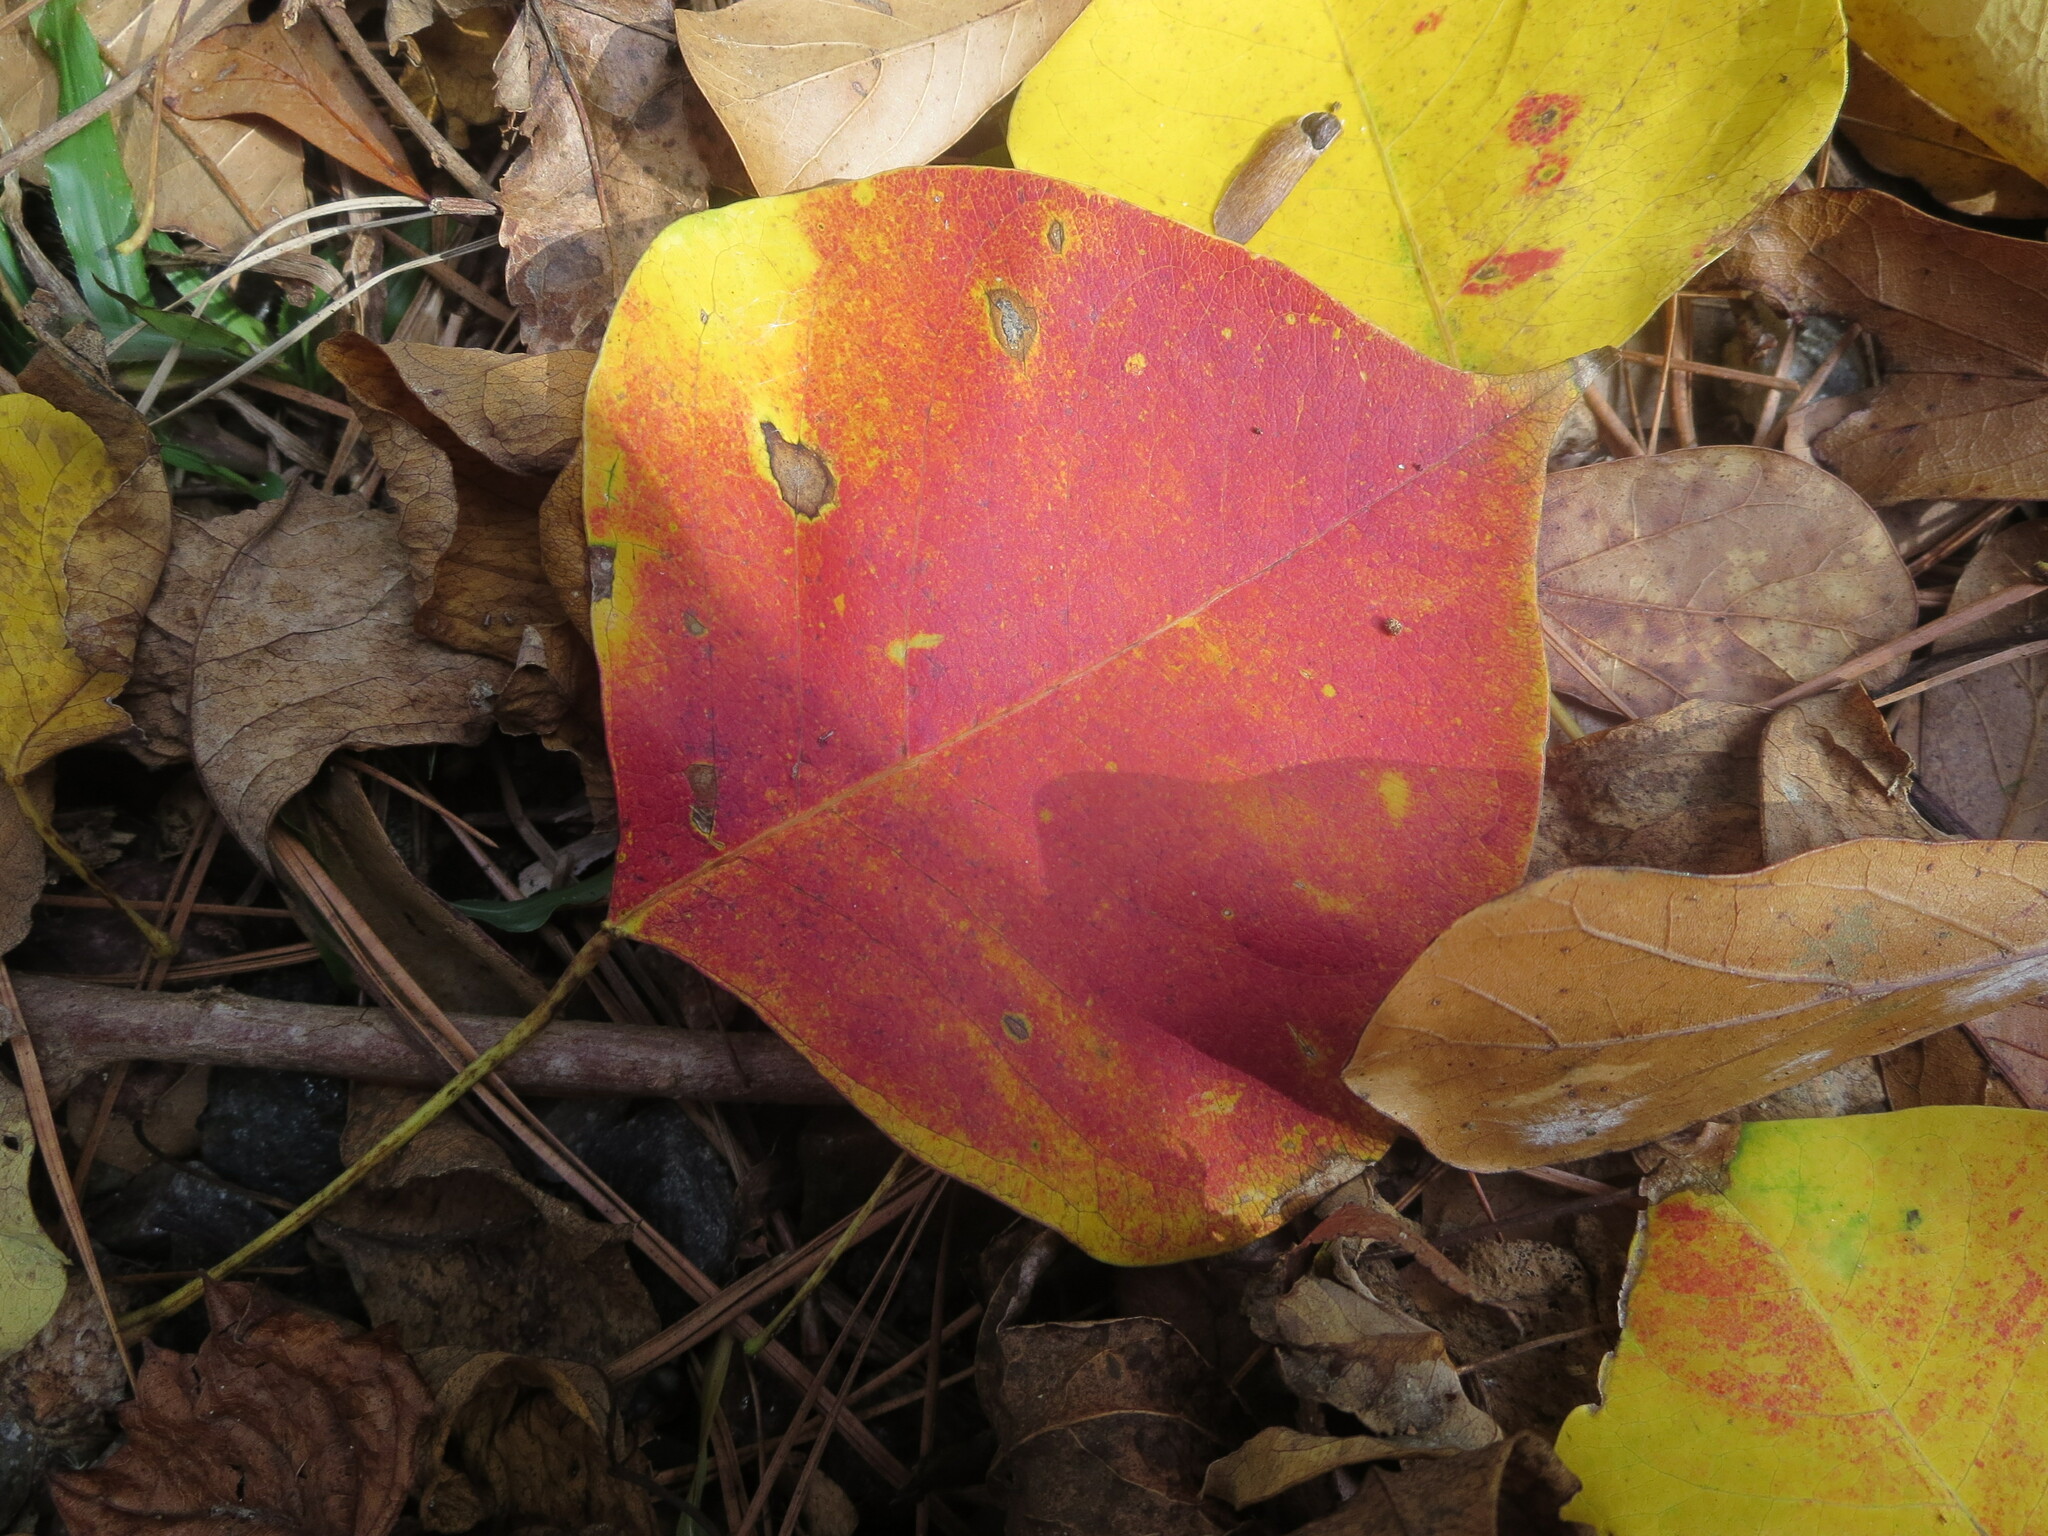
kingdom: Plantae
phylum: Tracheophyta
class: Magnoliopsida
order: Malpighiales
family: Euphorbiaceae
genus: Triadica
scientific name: Triadica sebifera
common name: Chinese tallow
